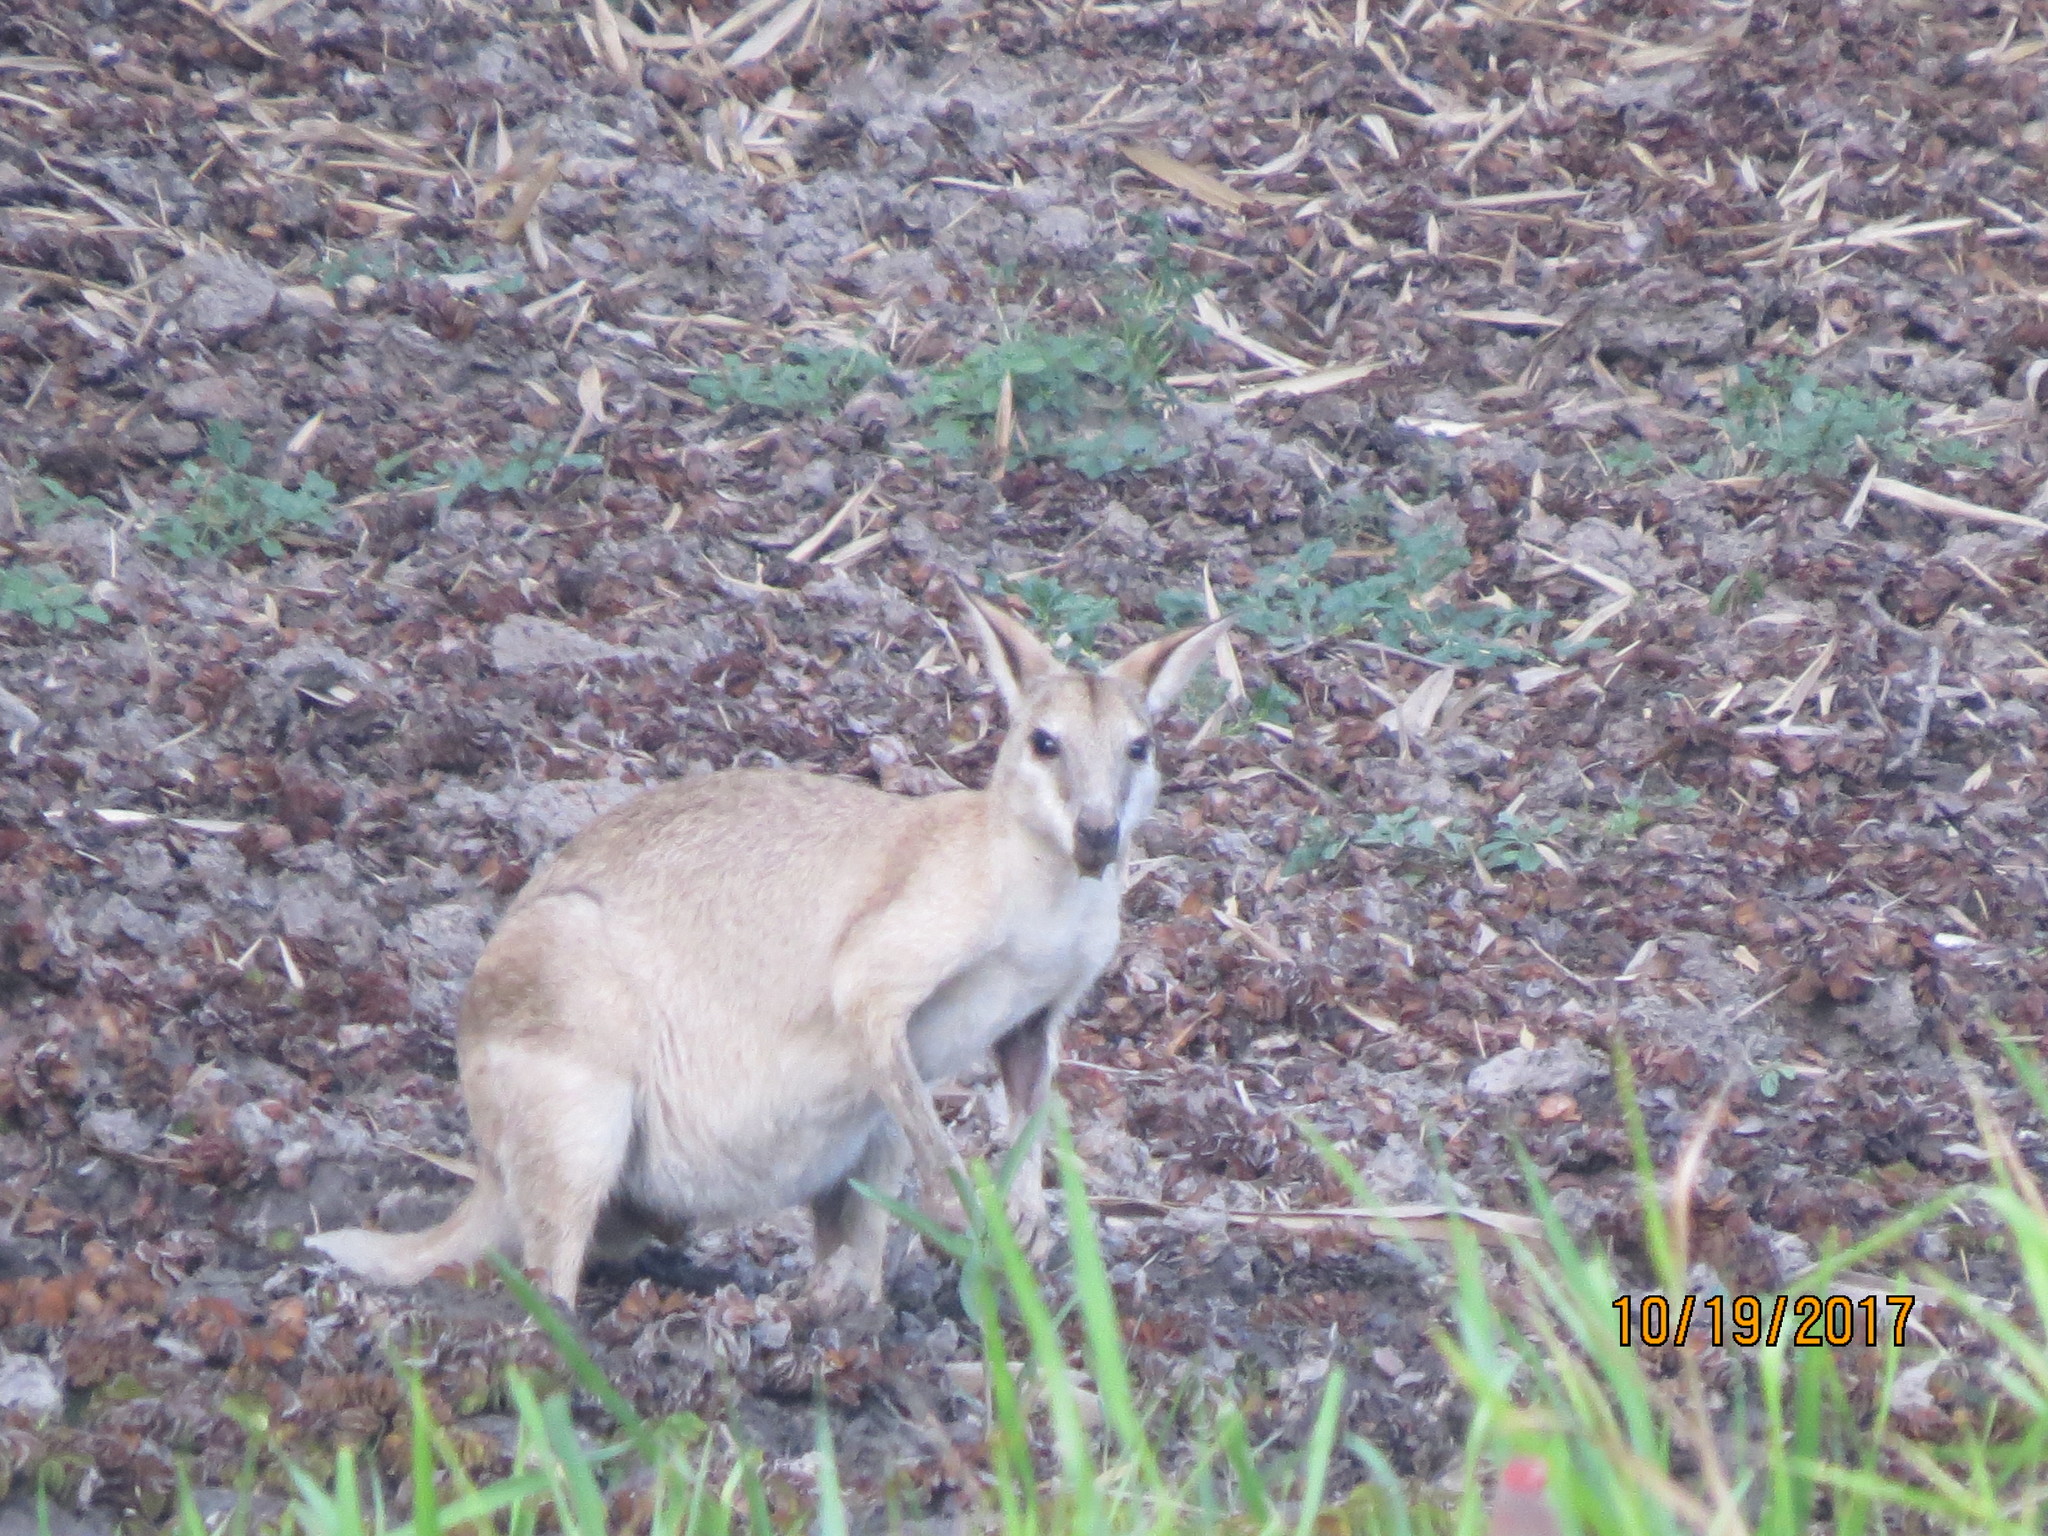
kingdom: Animalia
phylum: Chordata
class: Mammalia
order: Diprotodontia
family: Macropodidae
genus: Macropus
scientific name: Macropus agilis
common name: Agile wallaby
